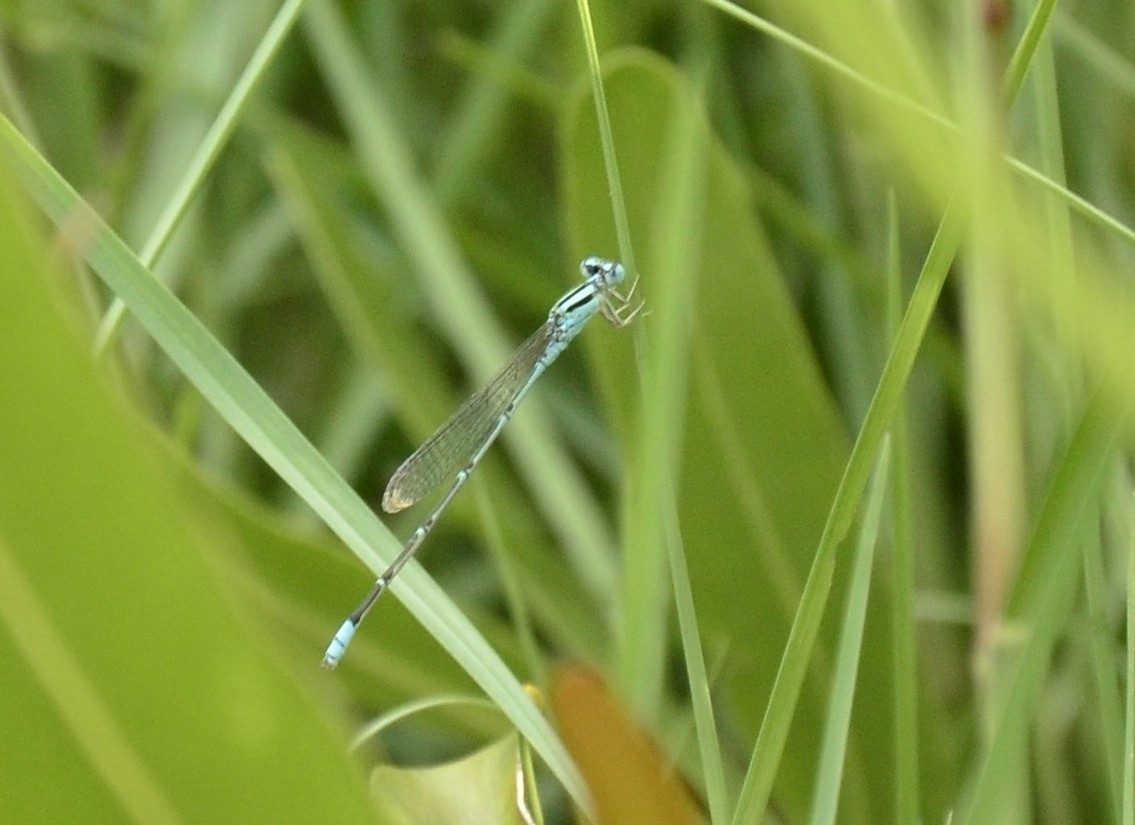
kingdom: Animalia
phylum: Arthropoda
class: Insecta
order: Odonata
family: Coenagrionidae
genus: Pseudagrion
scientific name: Pseudagrion microcephalum
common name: Blue riverdamsel
